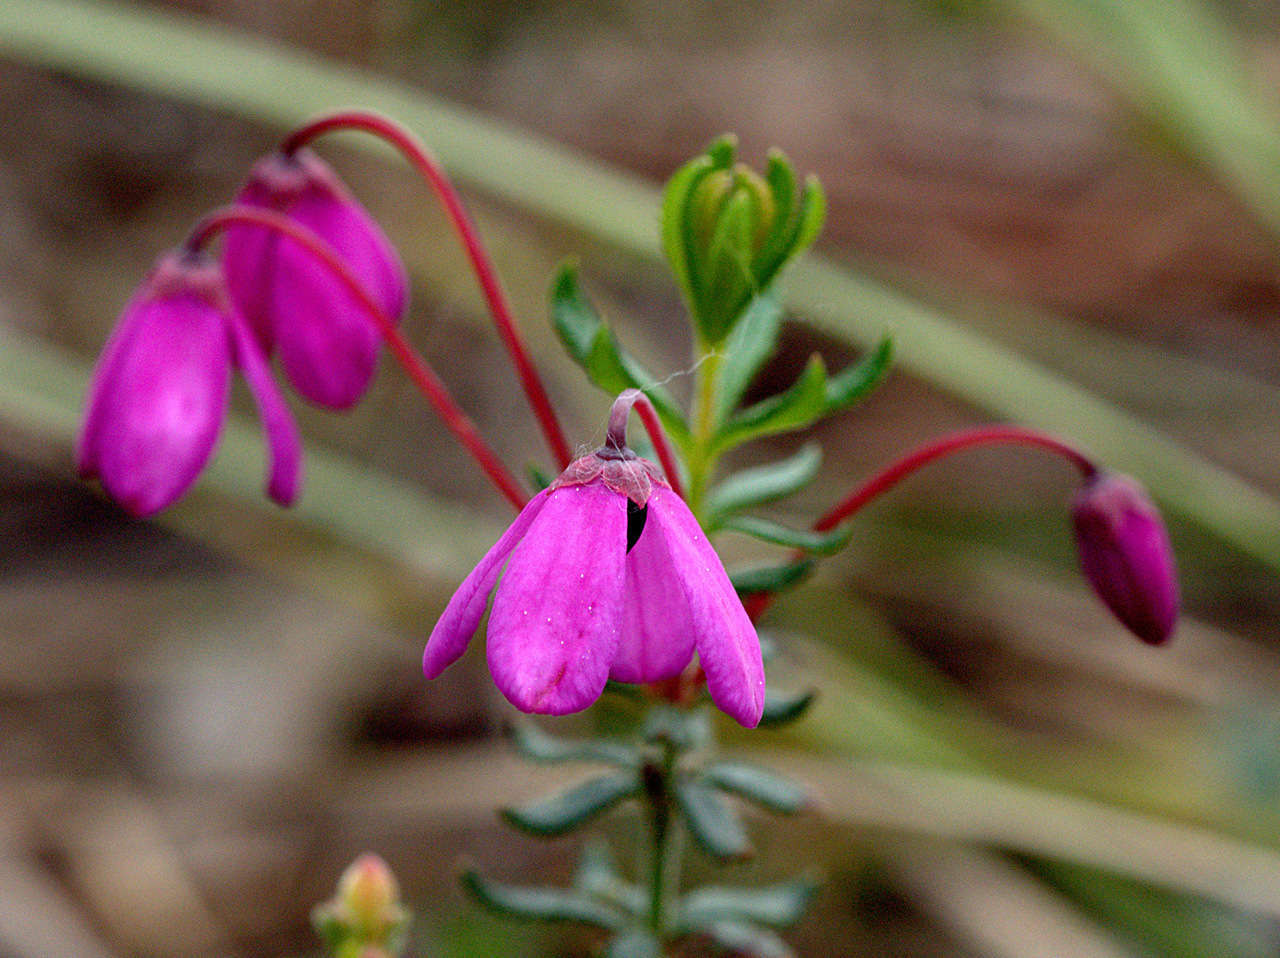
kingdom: Plantae
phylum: Tracheophyta
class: Magnoliopsida
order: Oxalidales
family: Elaeocarpaceae
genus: Tetratheca
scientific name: Tetratheca bauerifolia
